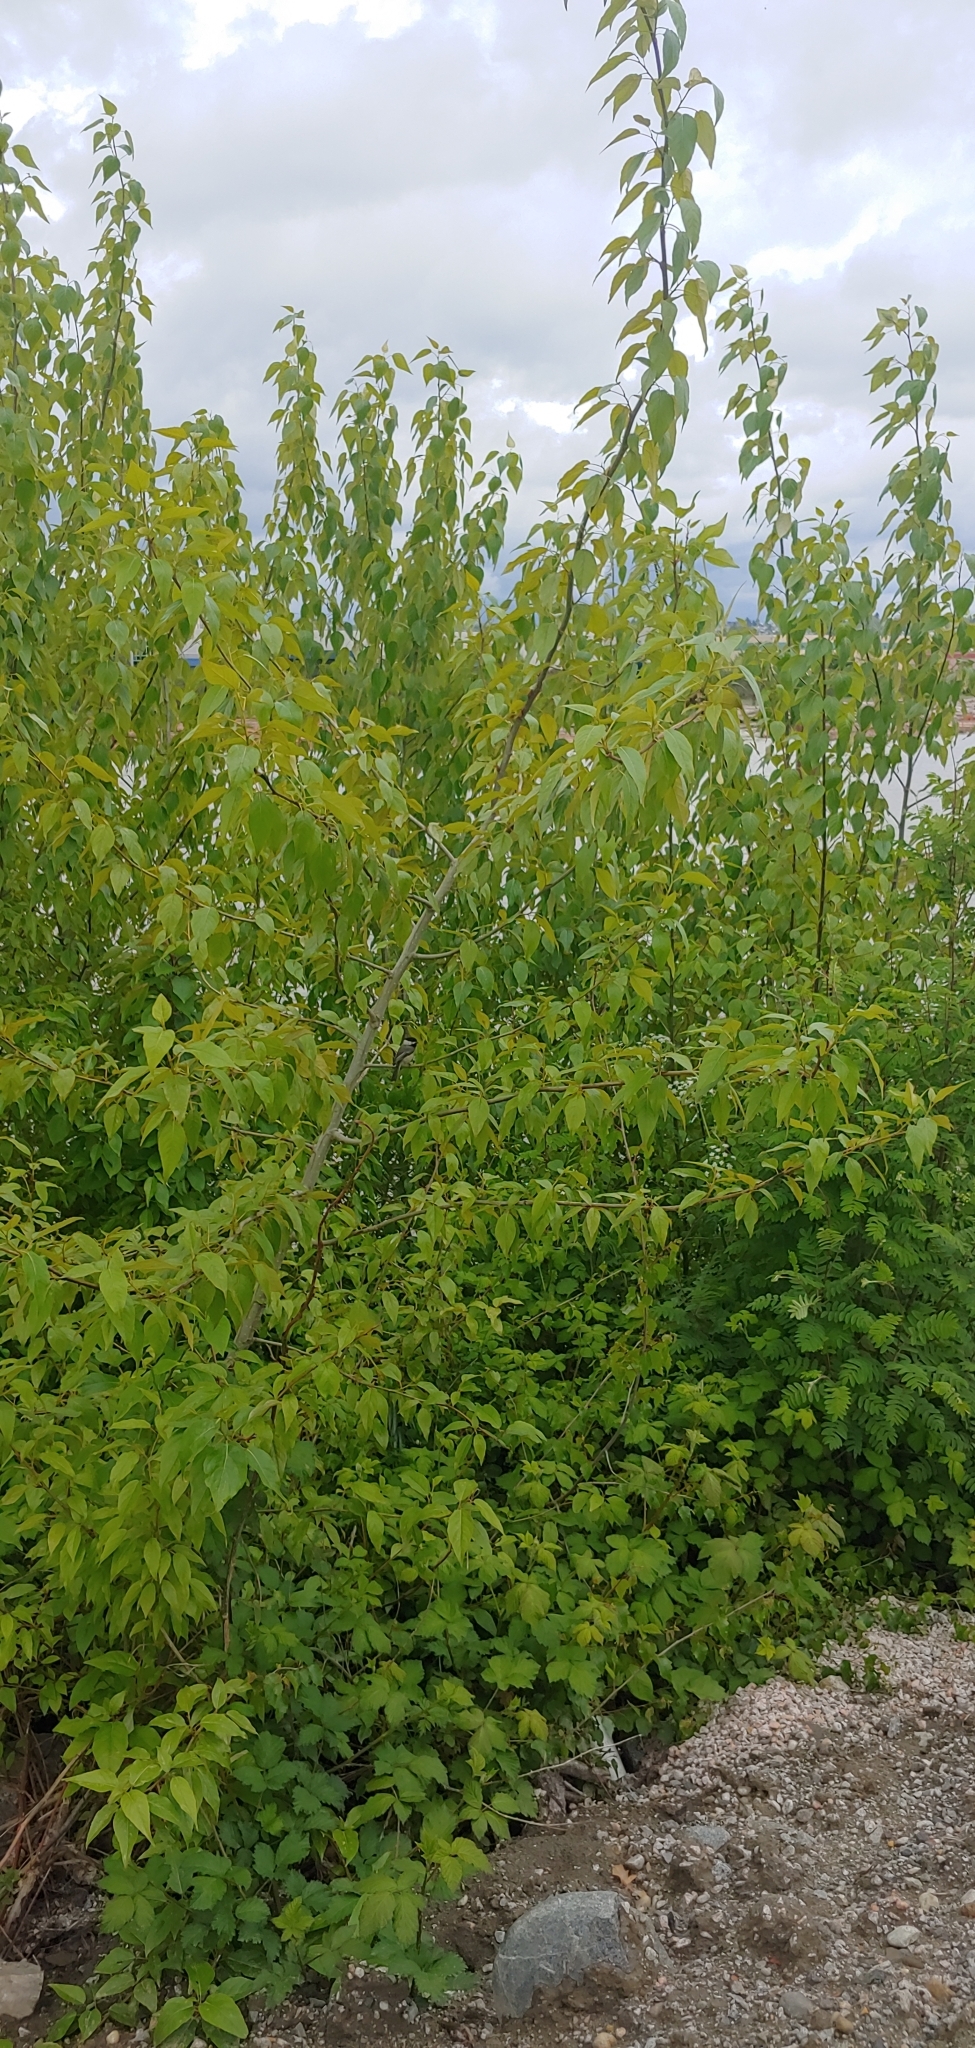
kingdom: Animalia
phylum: Chordata
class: Aves
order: Passeriformes
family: Paridae
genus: Poecile
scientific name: Poecile atricapillus
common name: Black-capped chickadee
